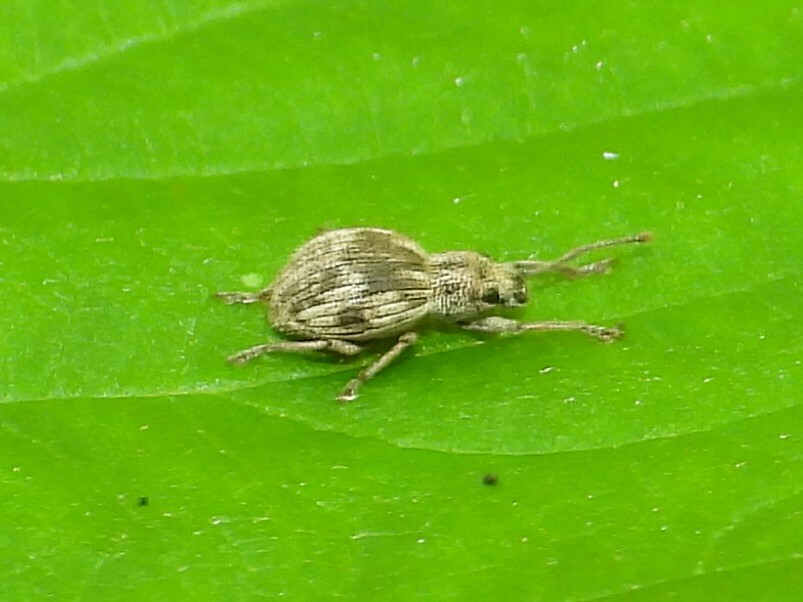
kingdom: Animalia
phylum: Arthropoda
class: Insecta
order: Coleoptera
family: Curculionidae
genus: Calomycterus
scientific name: Calomycterus setarius
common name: Weevil
